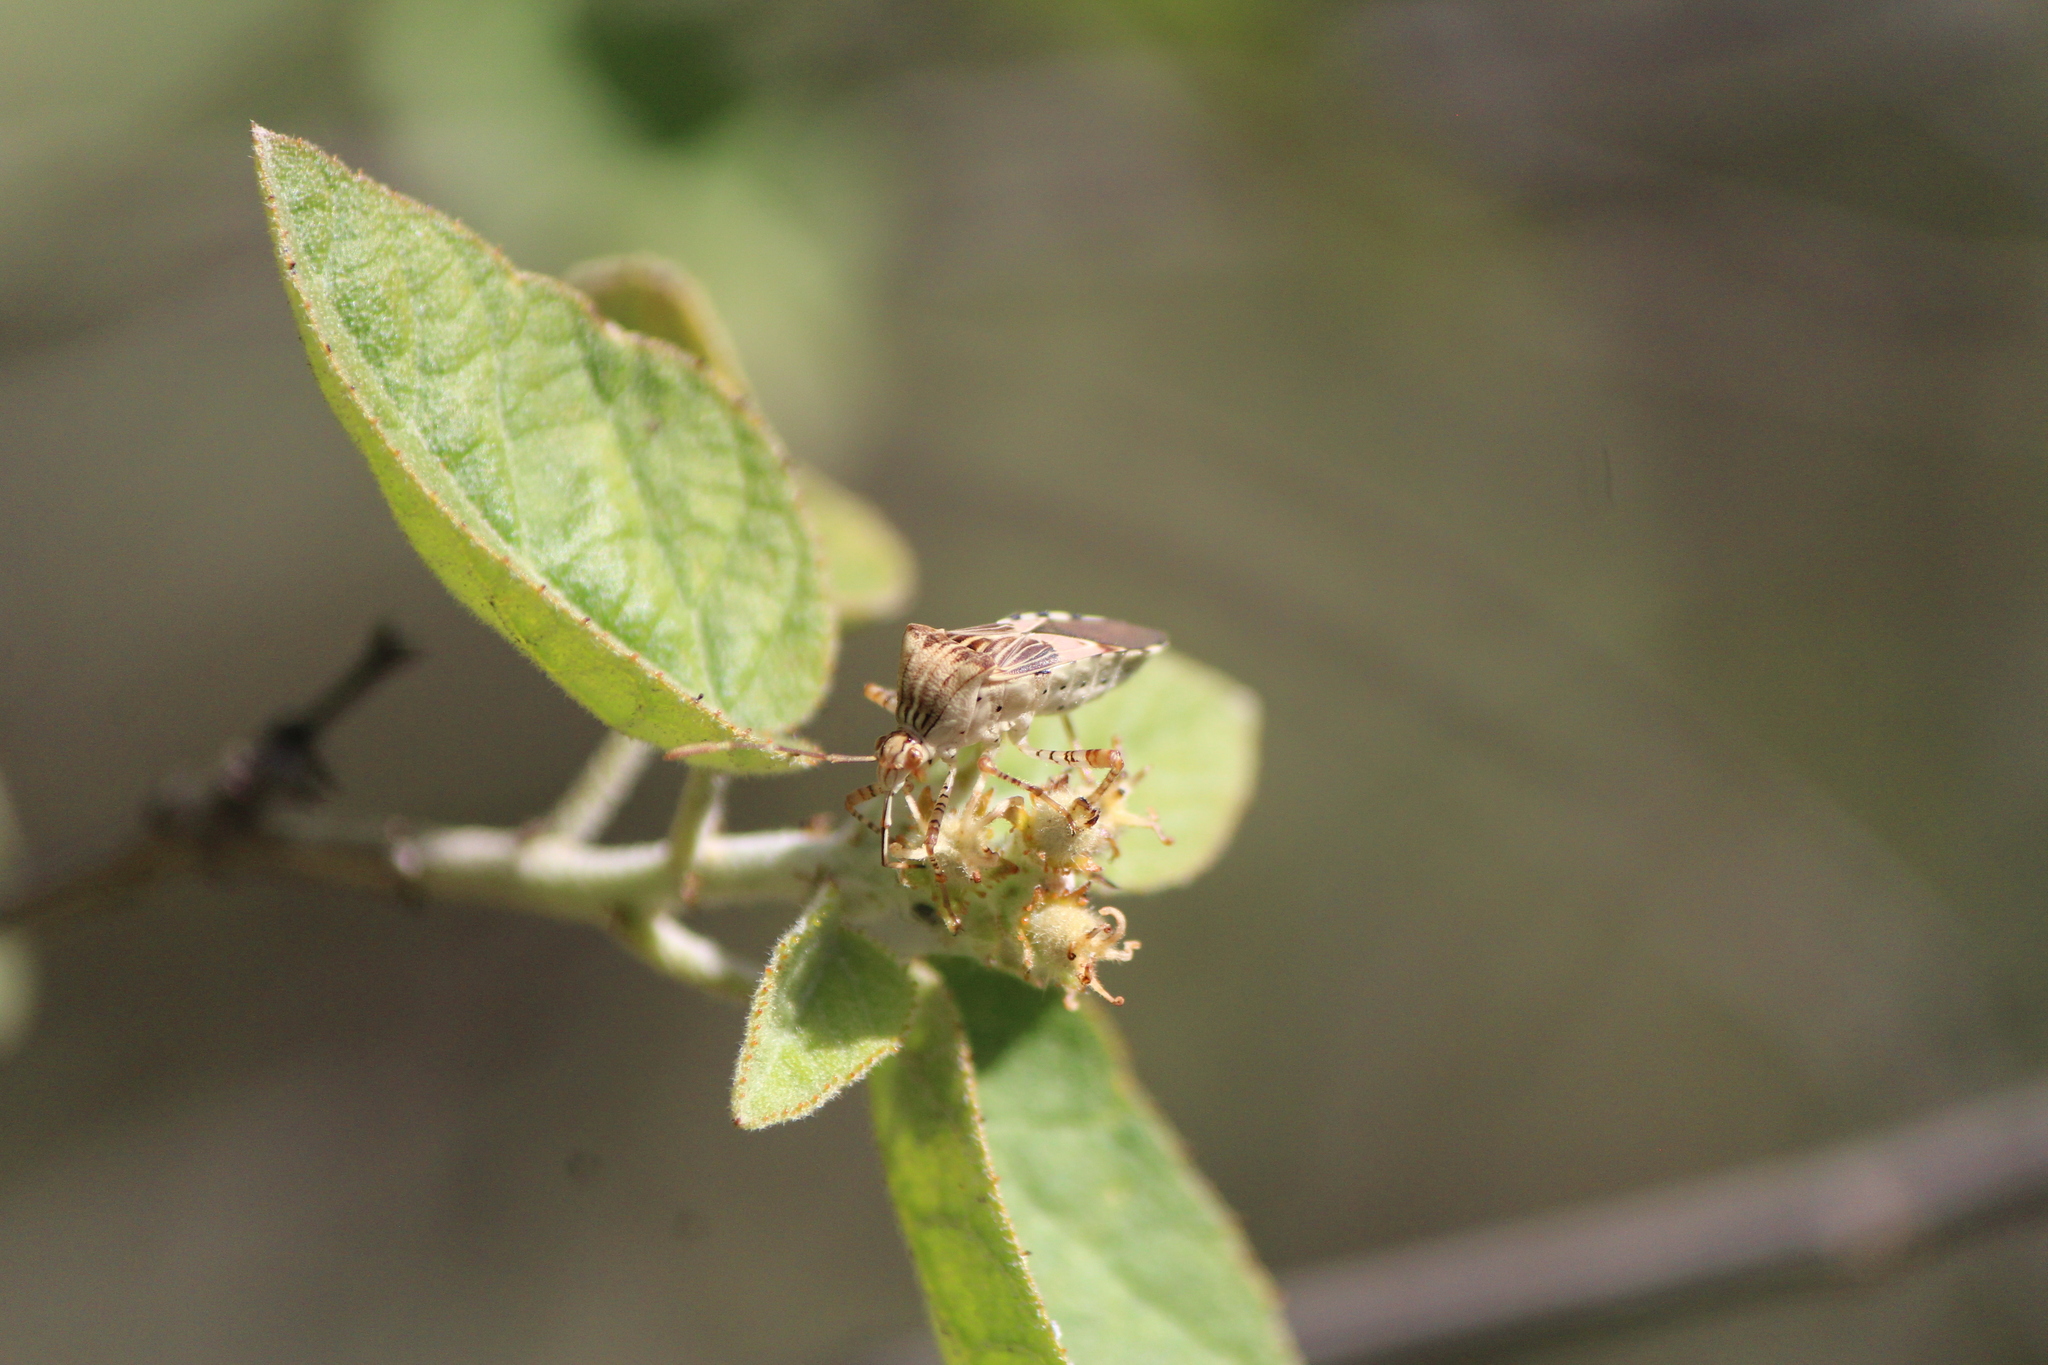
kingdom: Animalia
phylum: Arthropoda
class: Insecta
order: Hemiptera
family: Coreidae
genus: Hypselonotus
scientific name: Hypselonotus punctiventris
